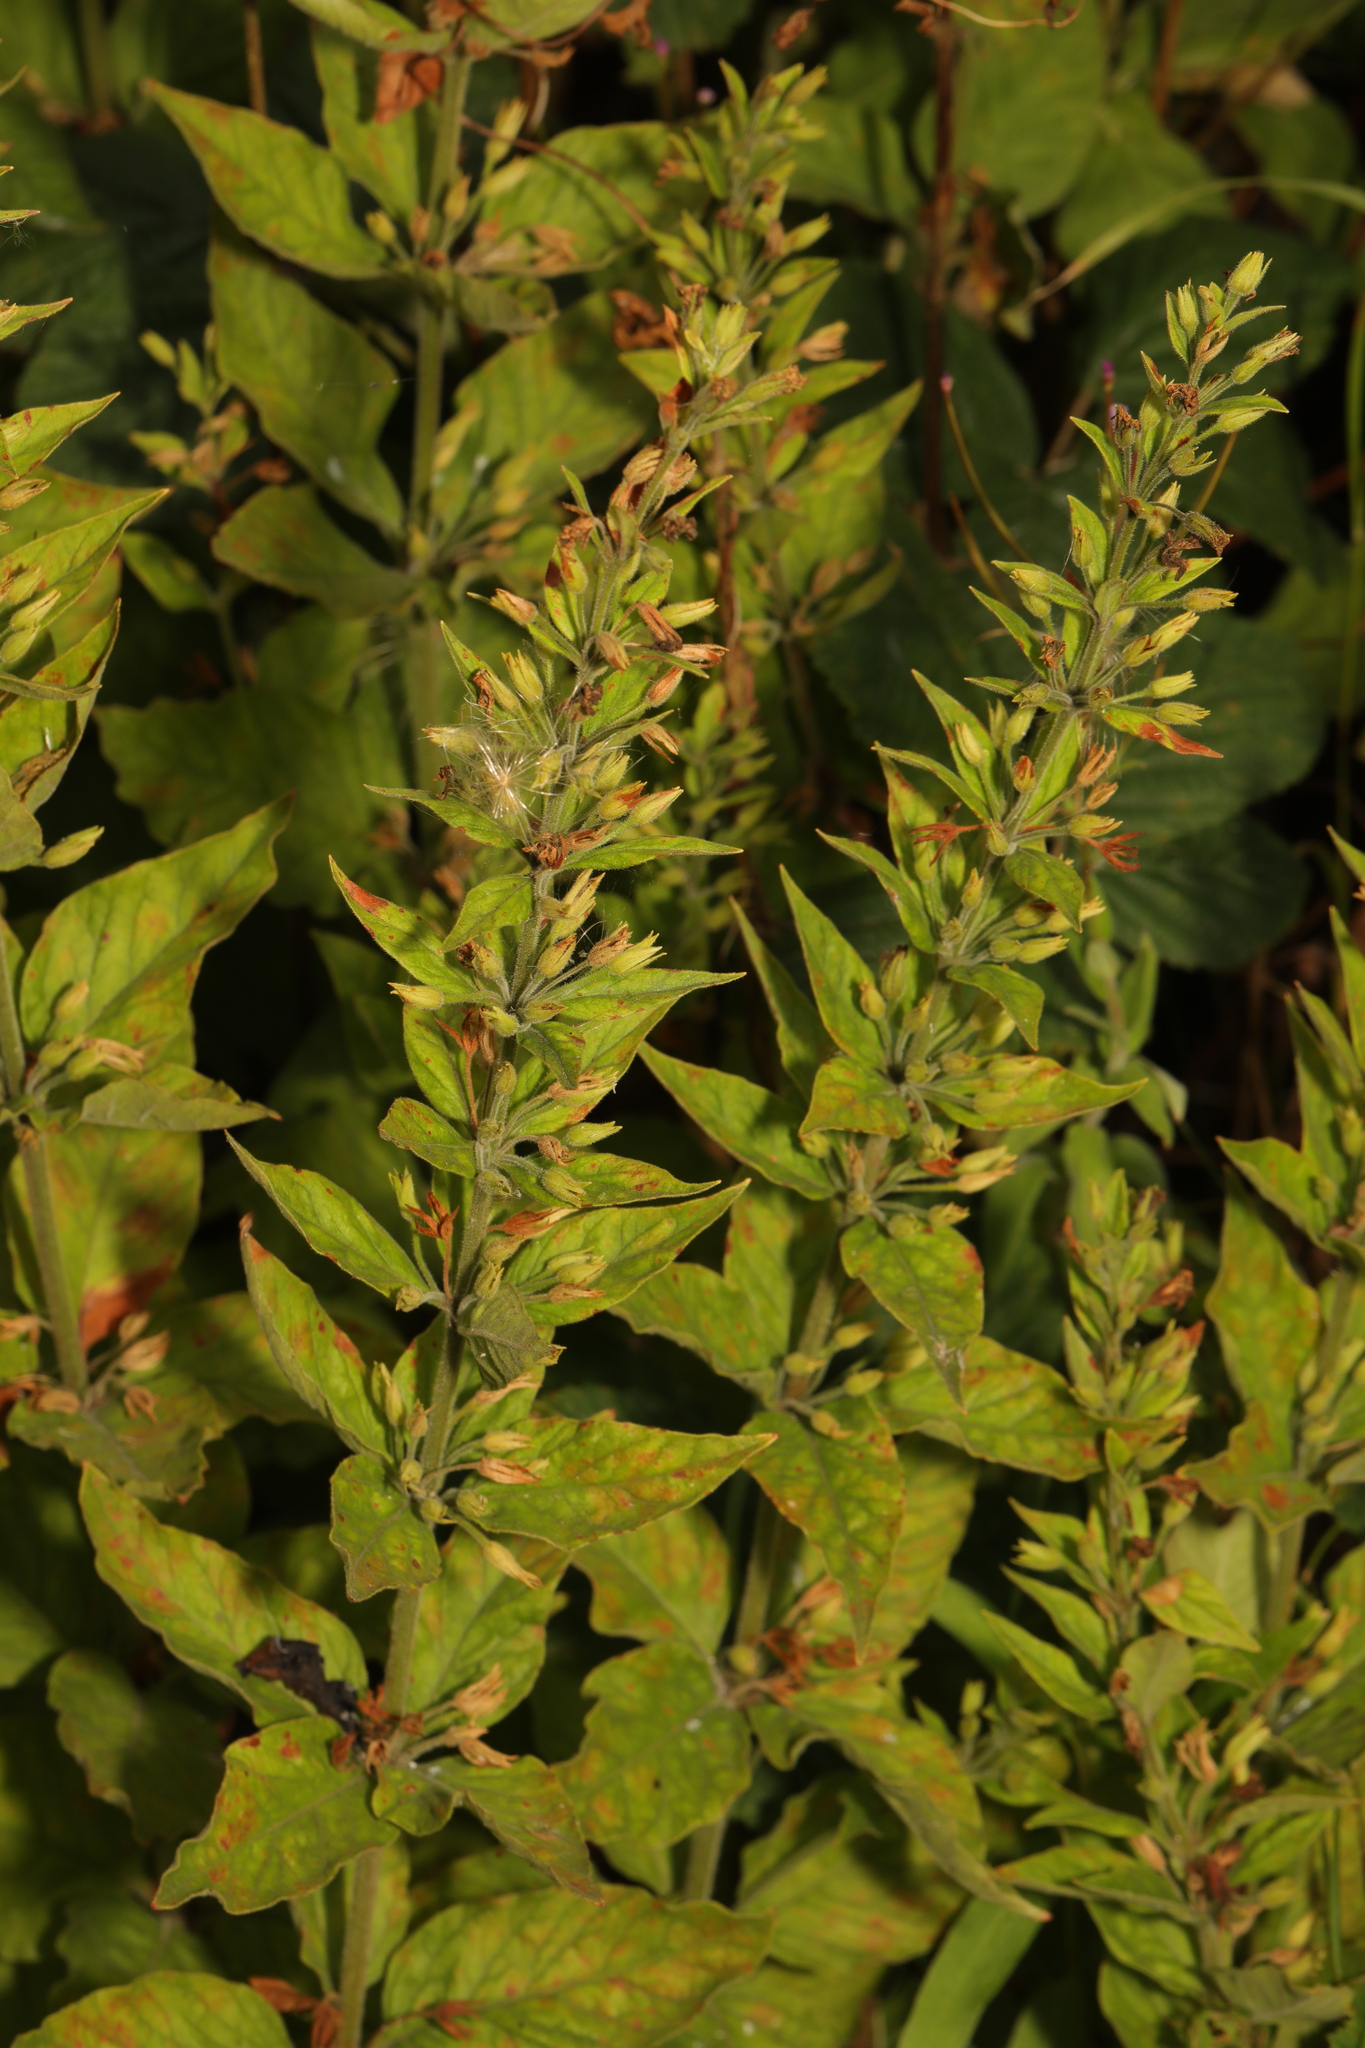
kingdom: Plantae
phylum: Tracheophyta
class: Magnoliopsida
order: Ericales
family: Primulaceae
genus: Lysimachia
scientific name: Lysimachia punctata
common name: Dotted loosestrife
